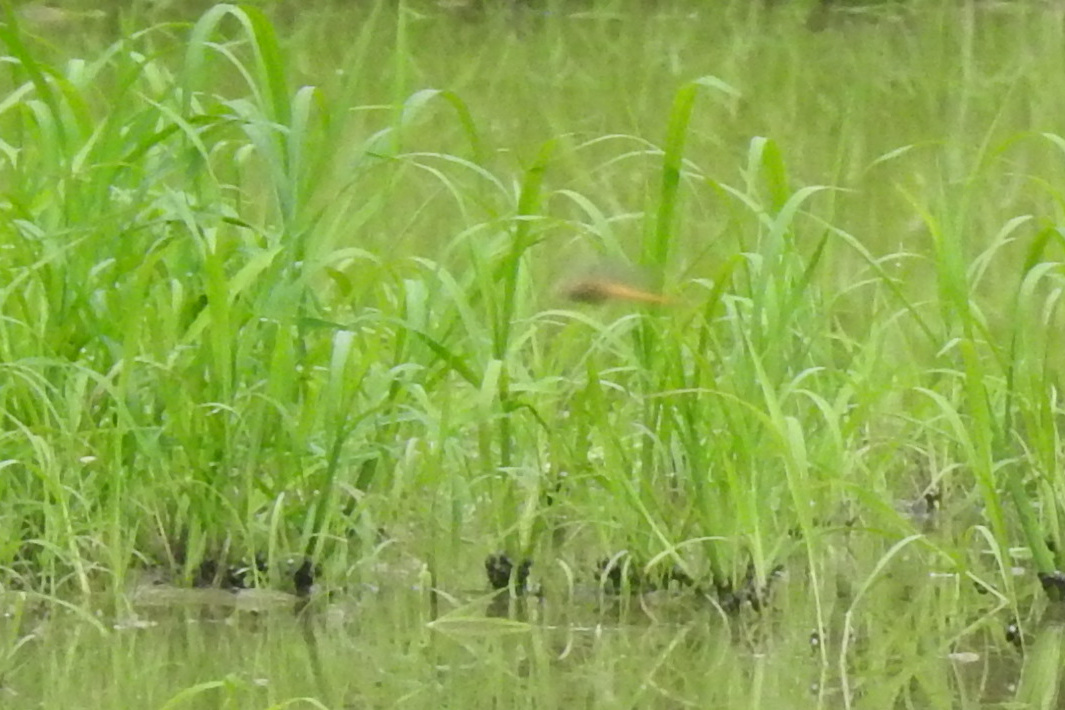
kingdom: Animalia
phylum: Arthropoda
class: Insecta
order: Odonata
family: Libellulidae
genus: Pantala
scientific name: Pantala flavescens
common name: Wandering glider
